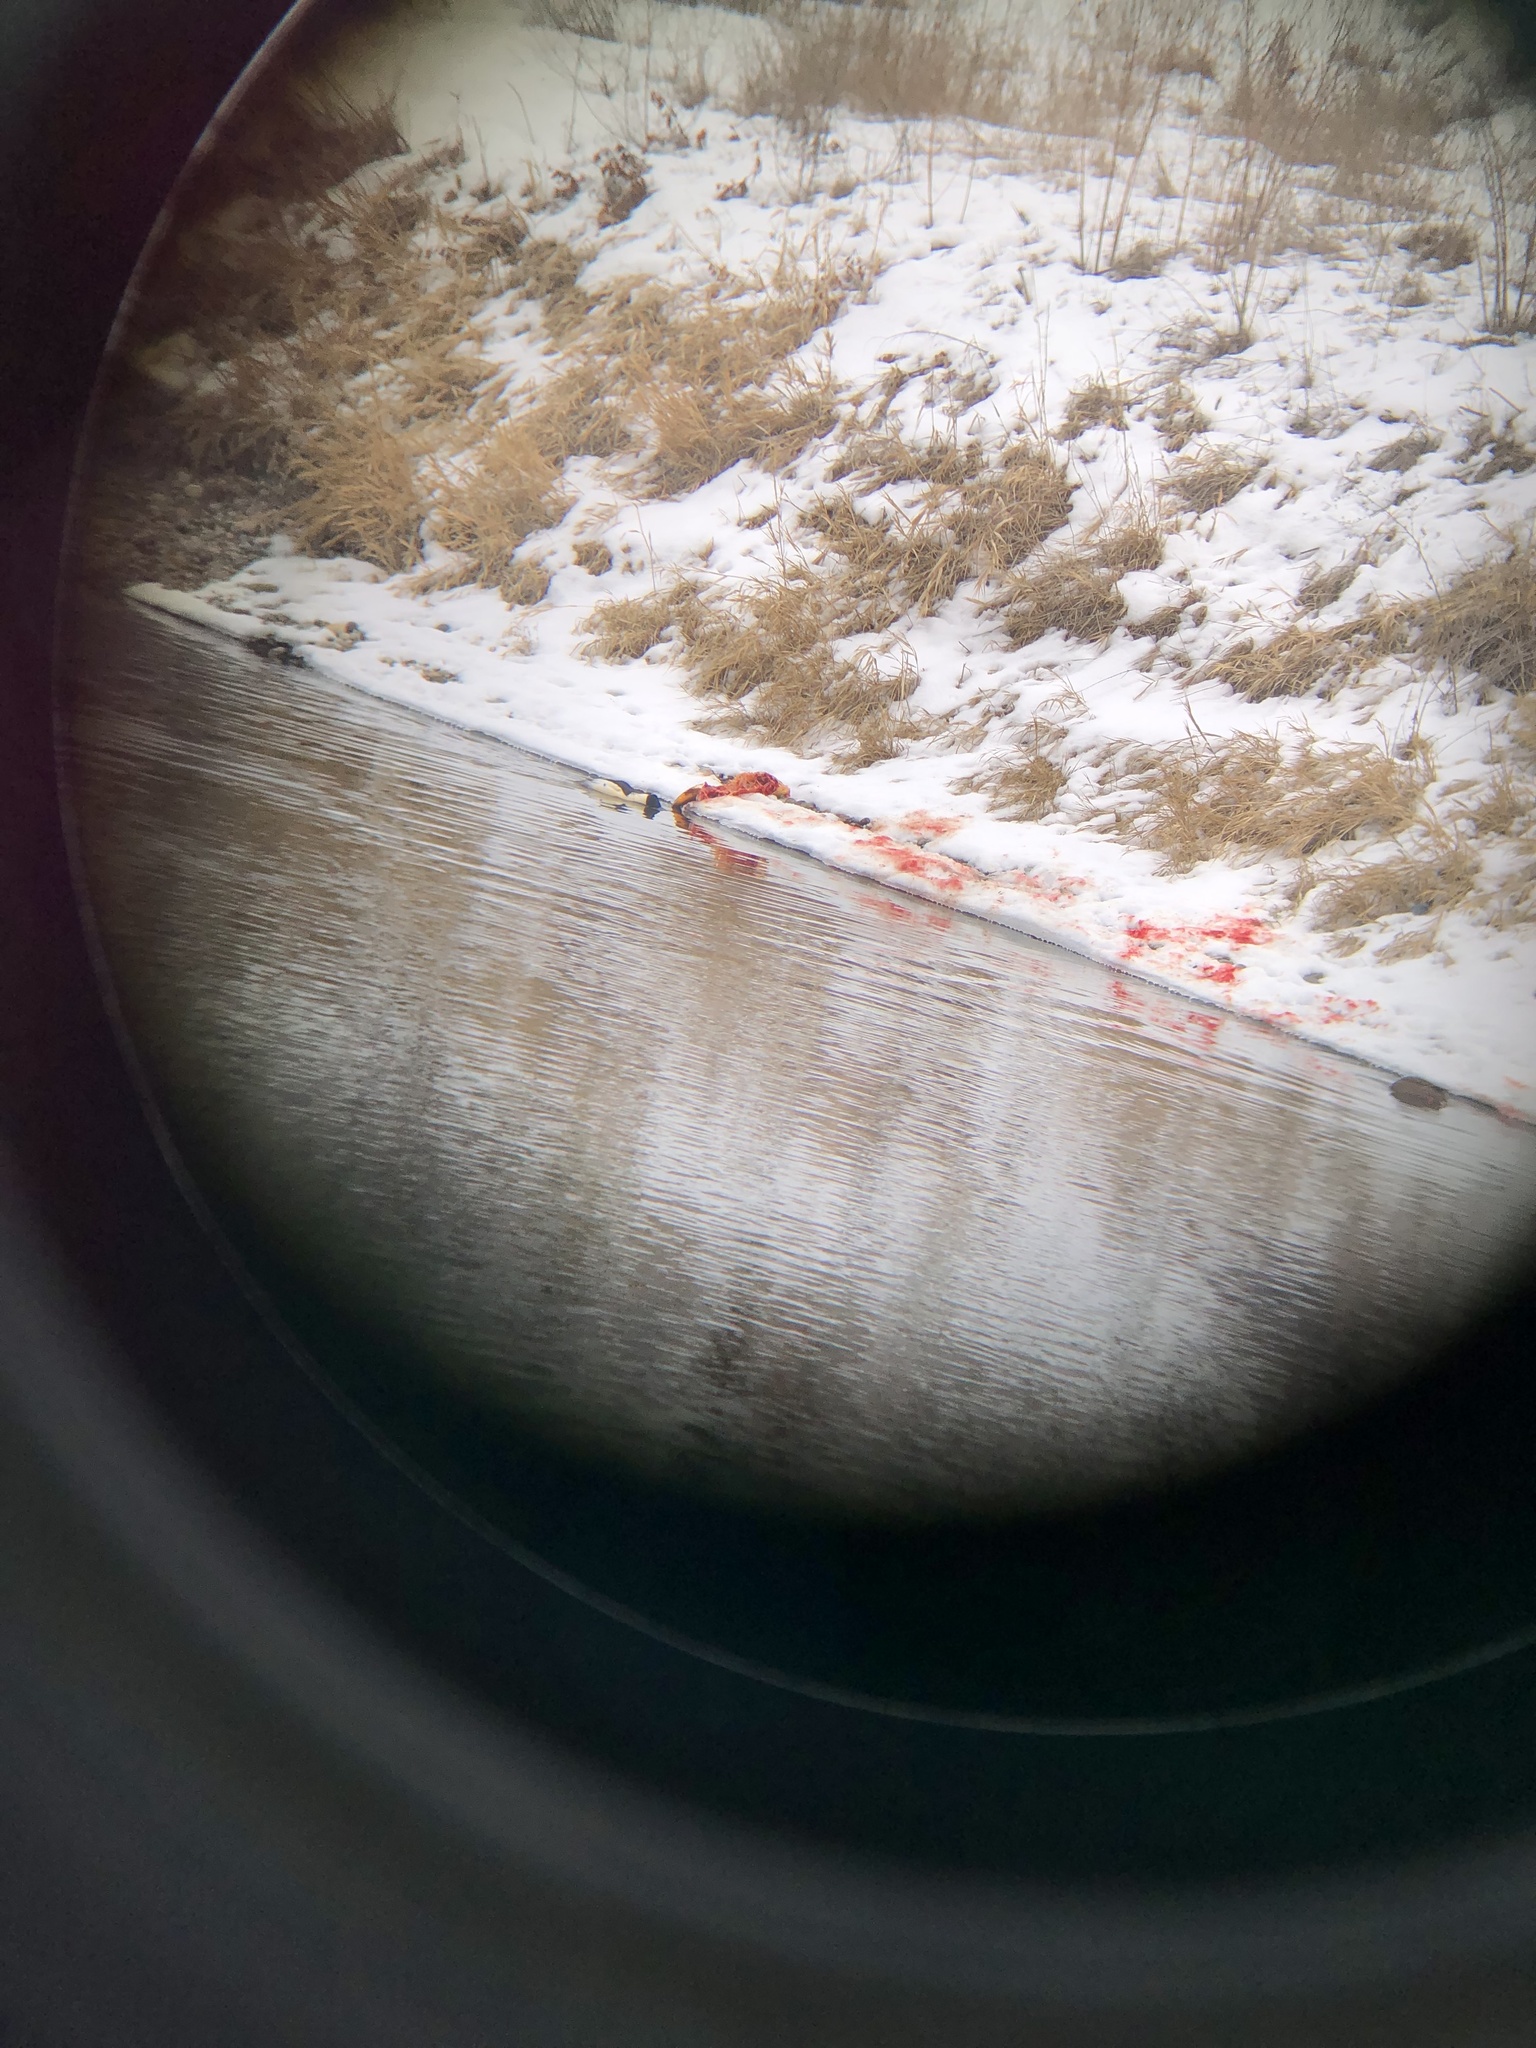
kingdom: Animalia
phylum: Chordata
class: Aves
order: Anseriformes
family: Anatidae
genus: Mergus
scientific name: Mergus merganser
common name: Common merganser
